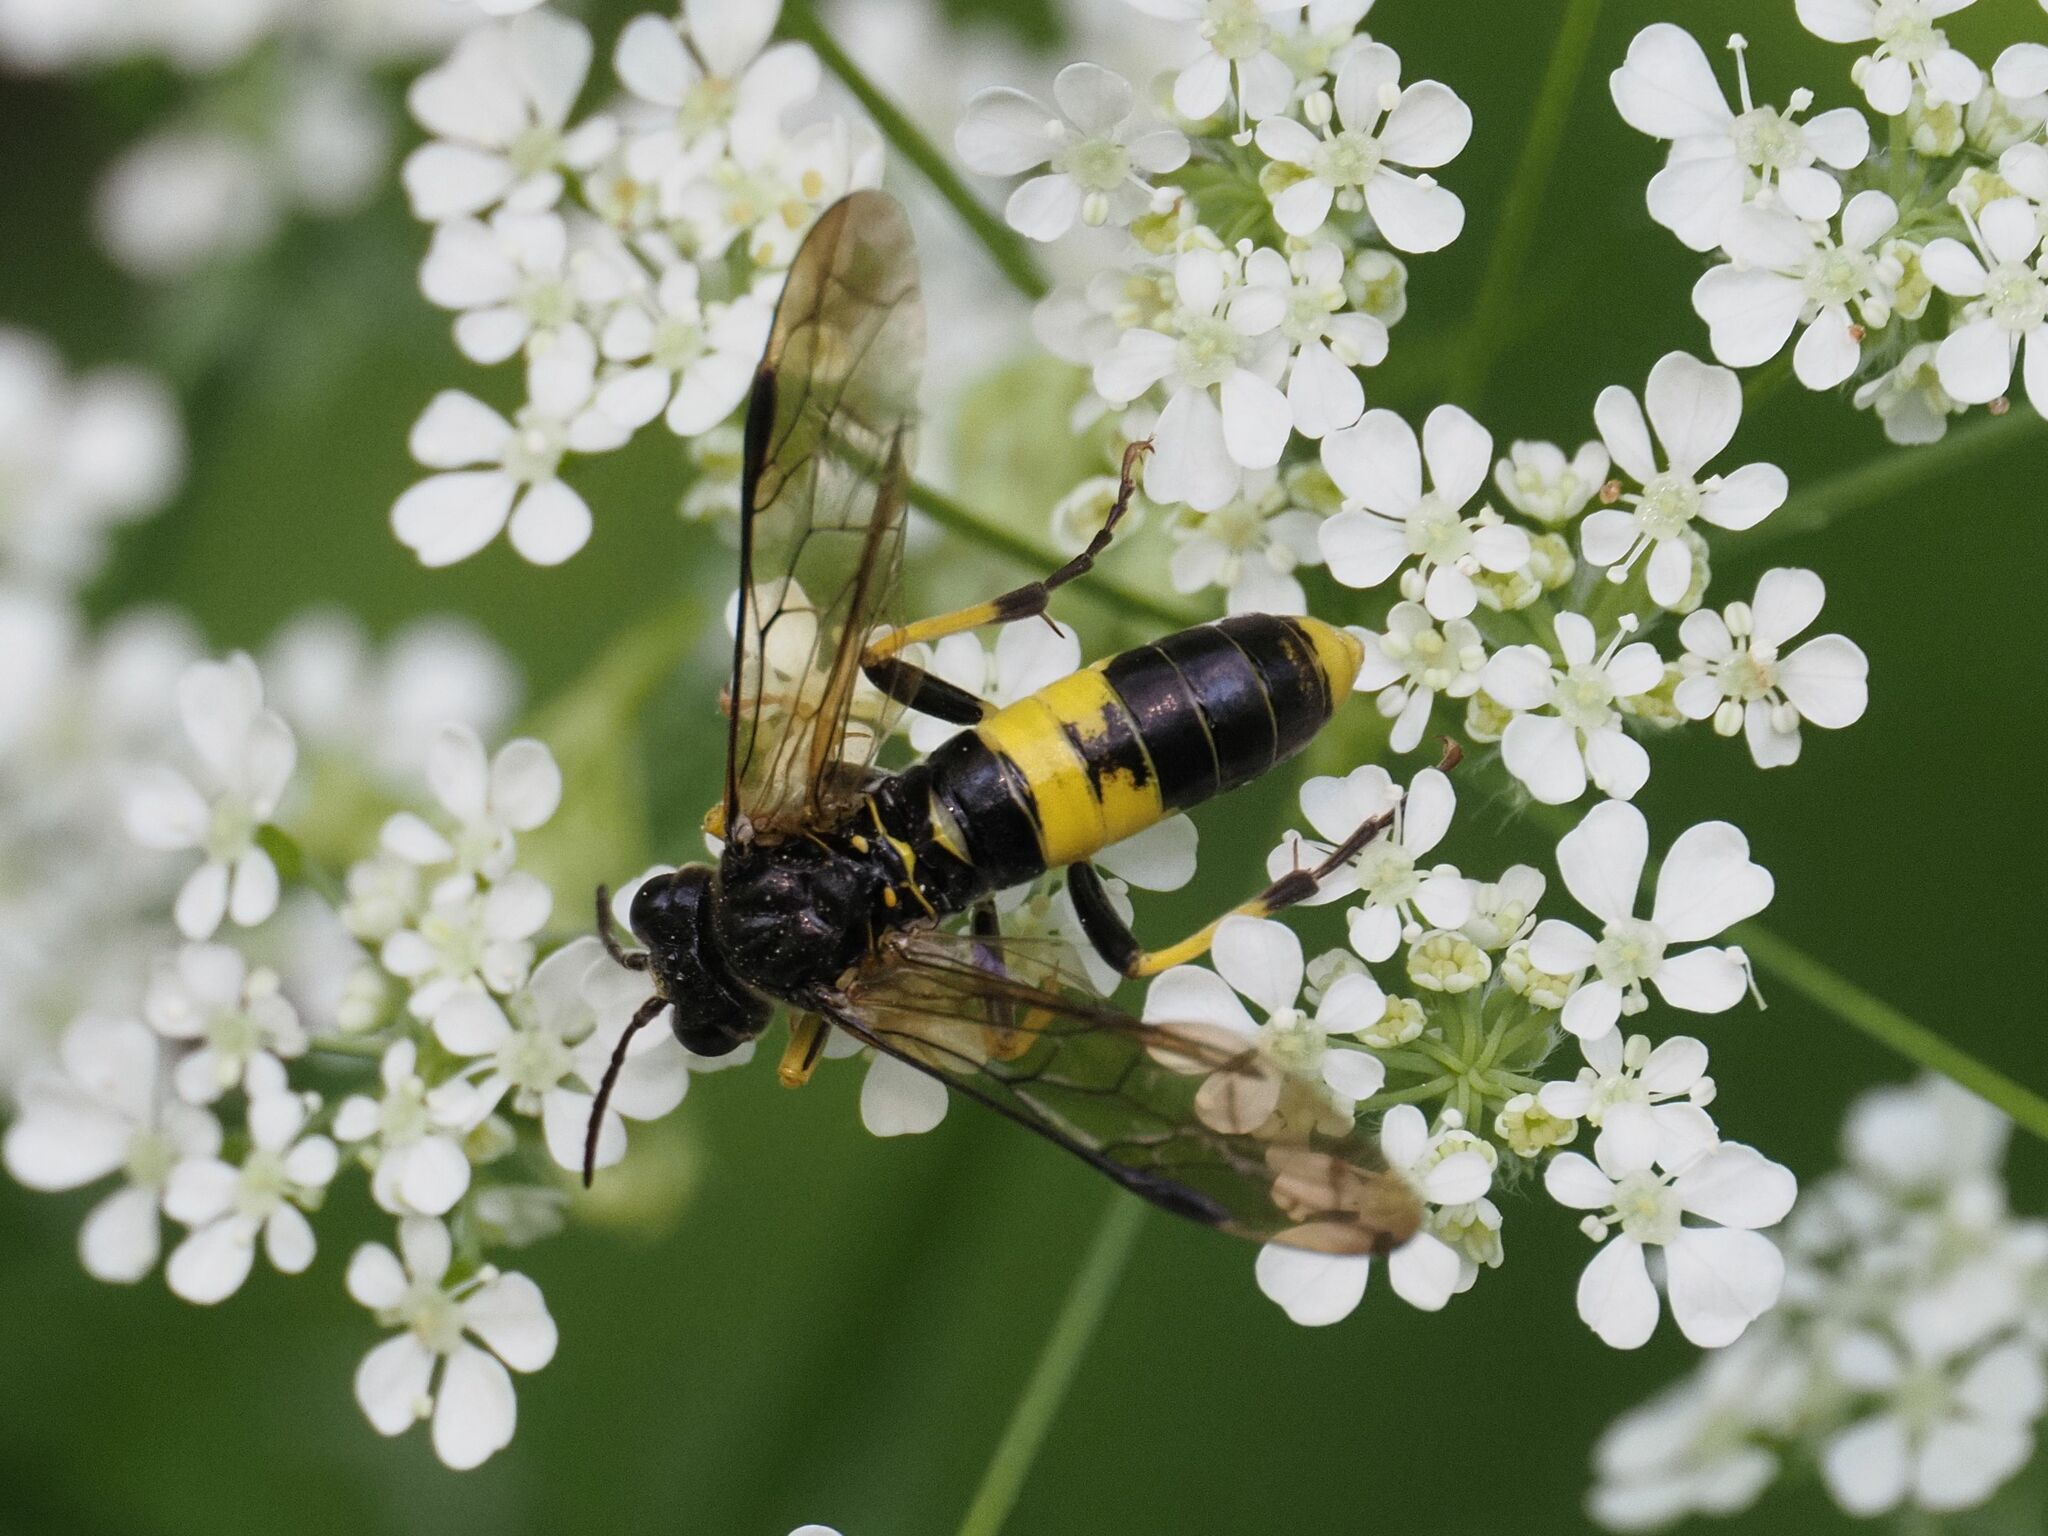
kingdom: Animalia
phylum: Arthropoda
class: Insecta
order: Hymenoptera
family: Tenthredinidae
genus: Tenthredo
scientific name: Tenthredo temula
